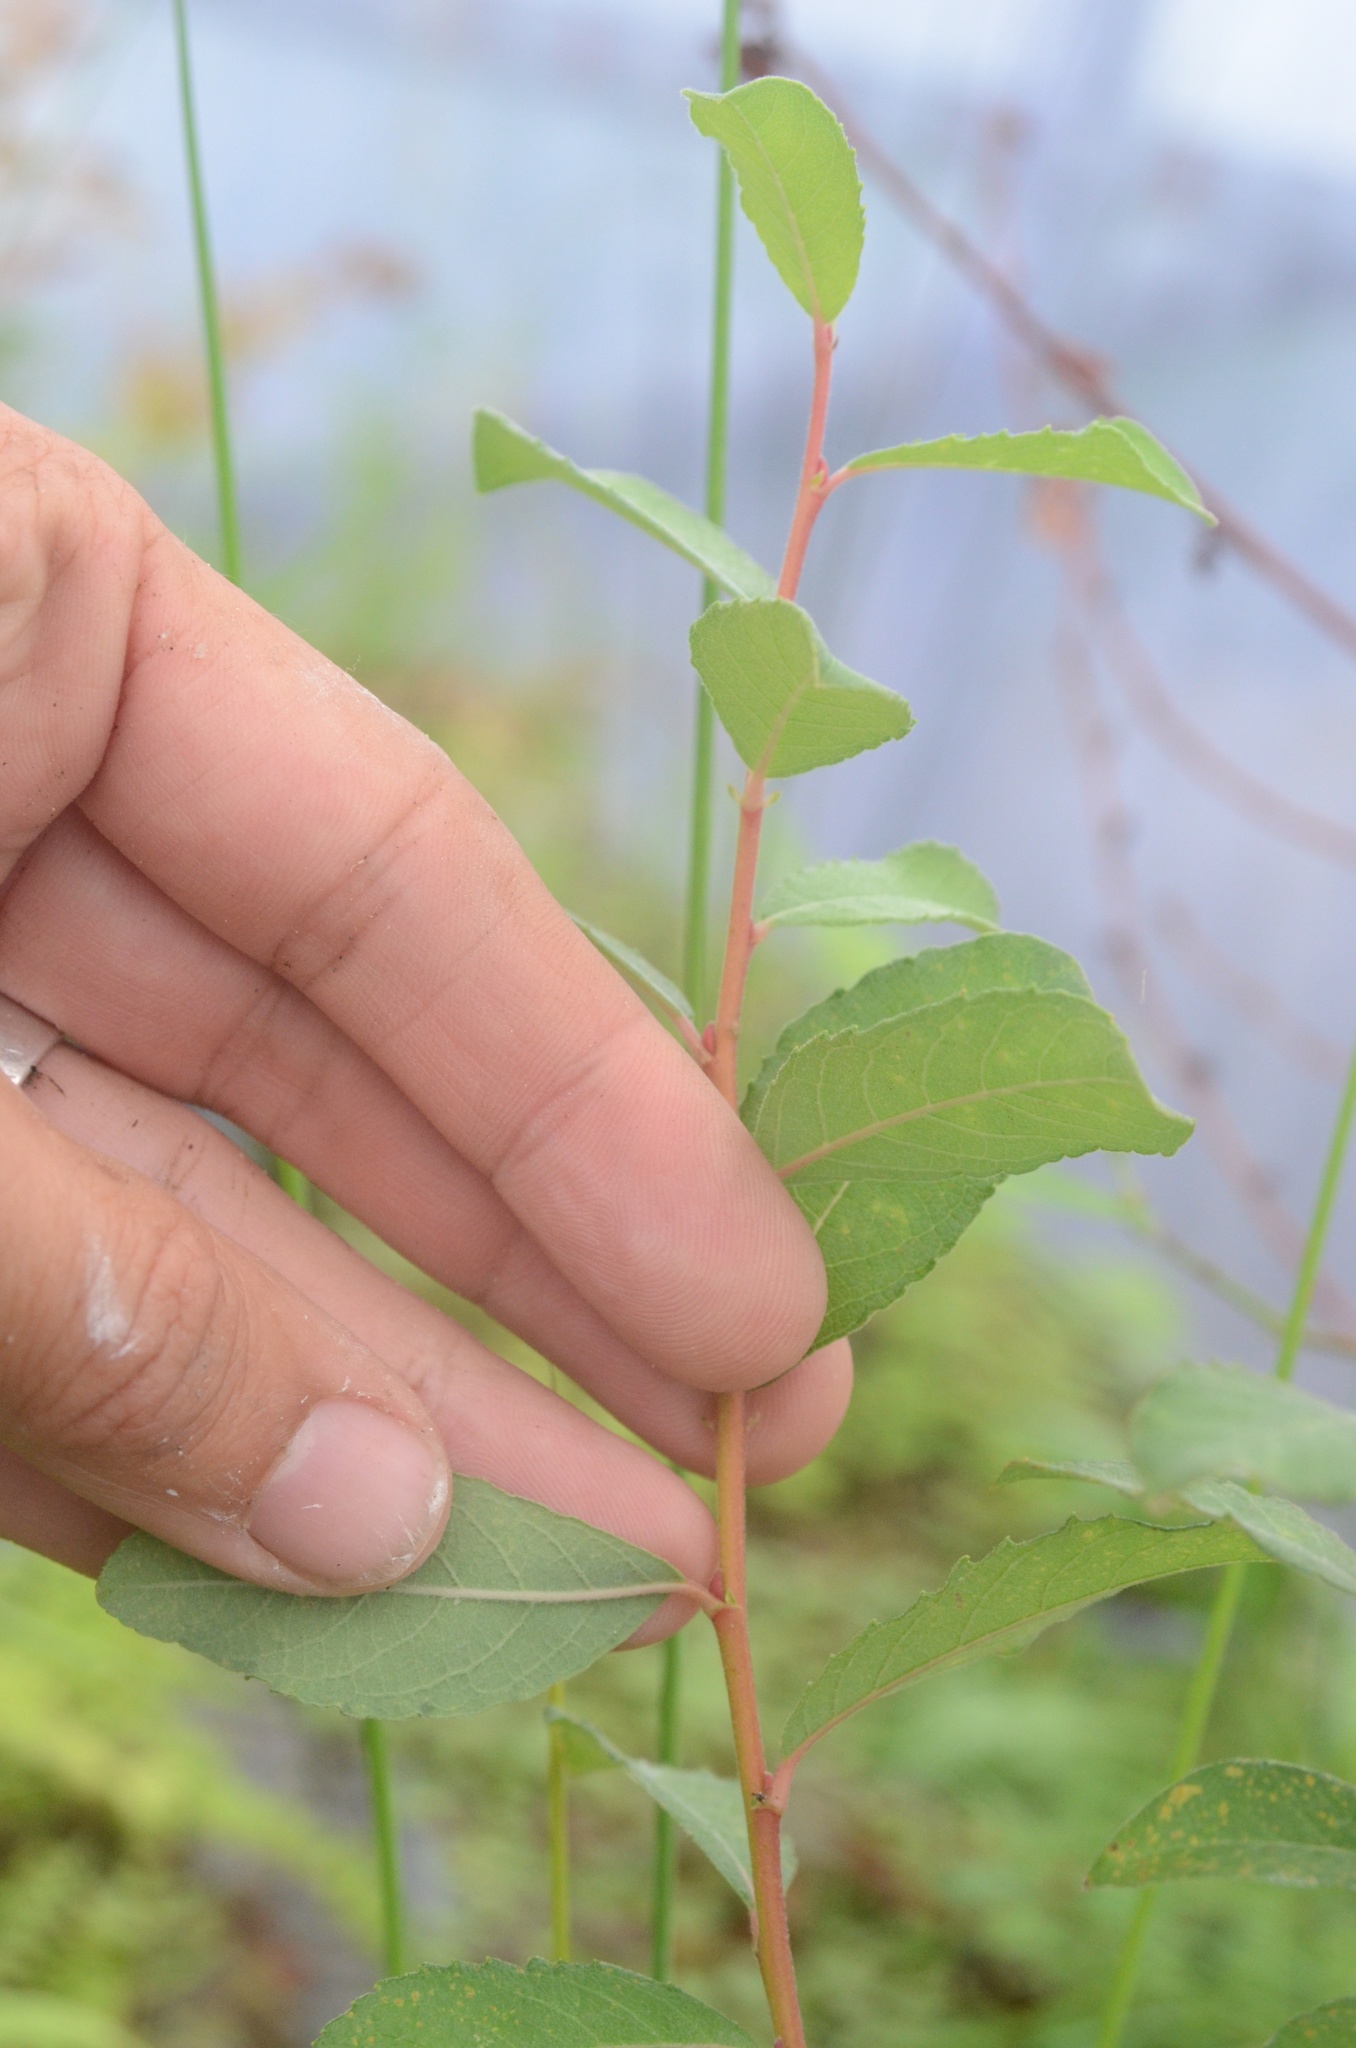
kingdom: Plantae
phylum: Tracheophyta
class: Magnoliopsida
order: Malpighiales
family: Salicaceae
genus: Salix
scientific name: Salix cinerea
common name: Common sallow
